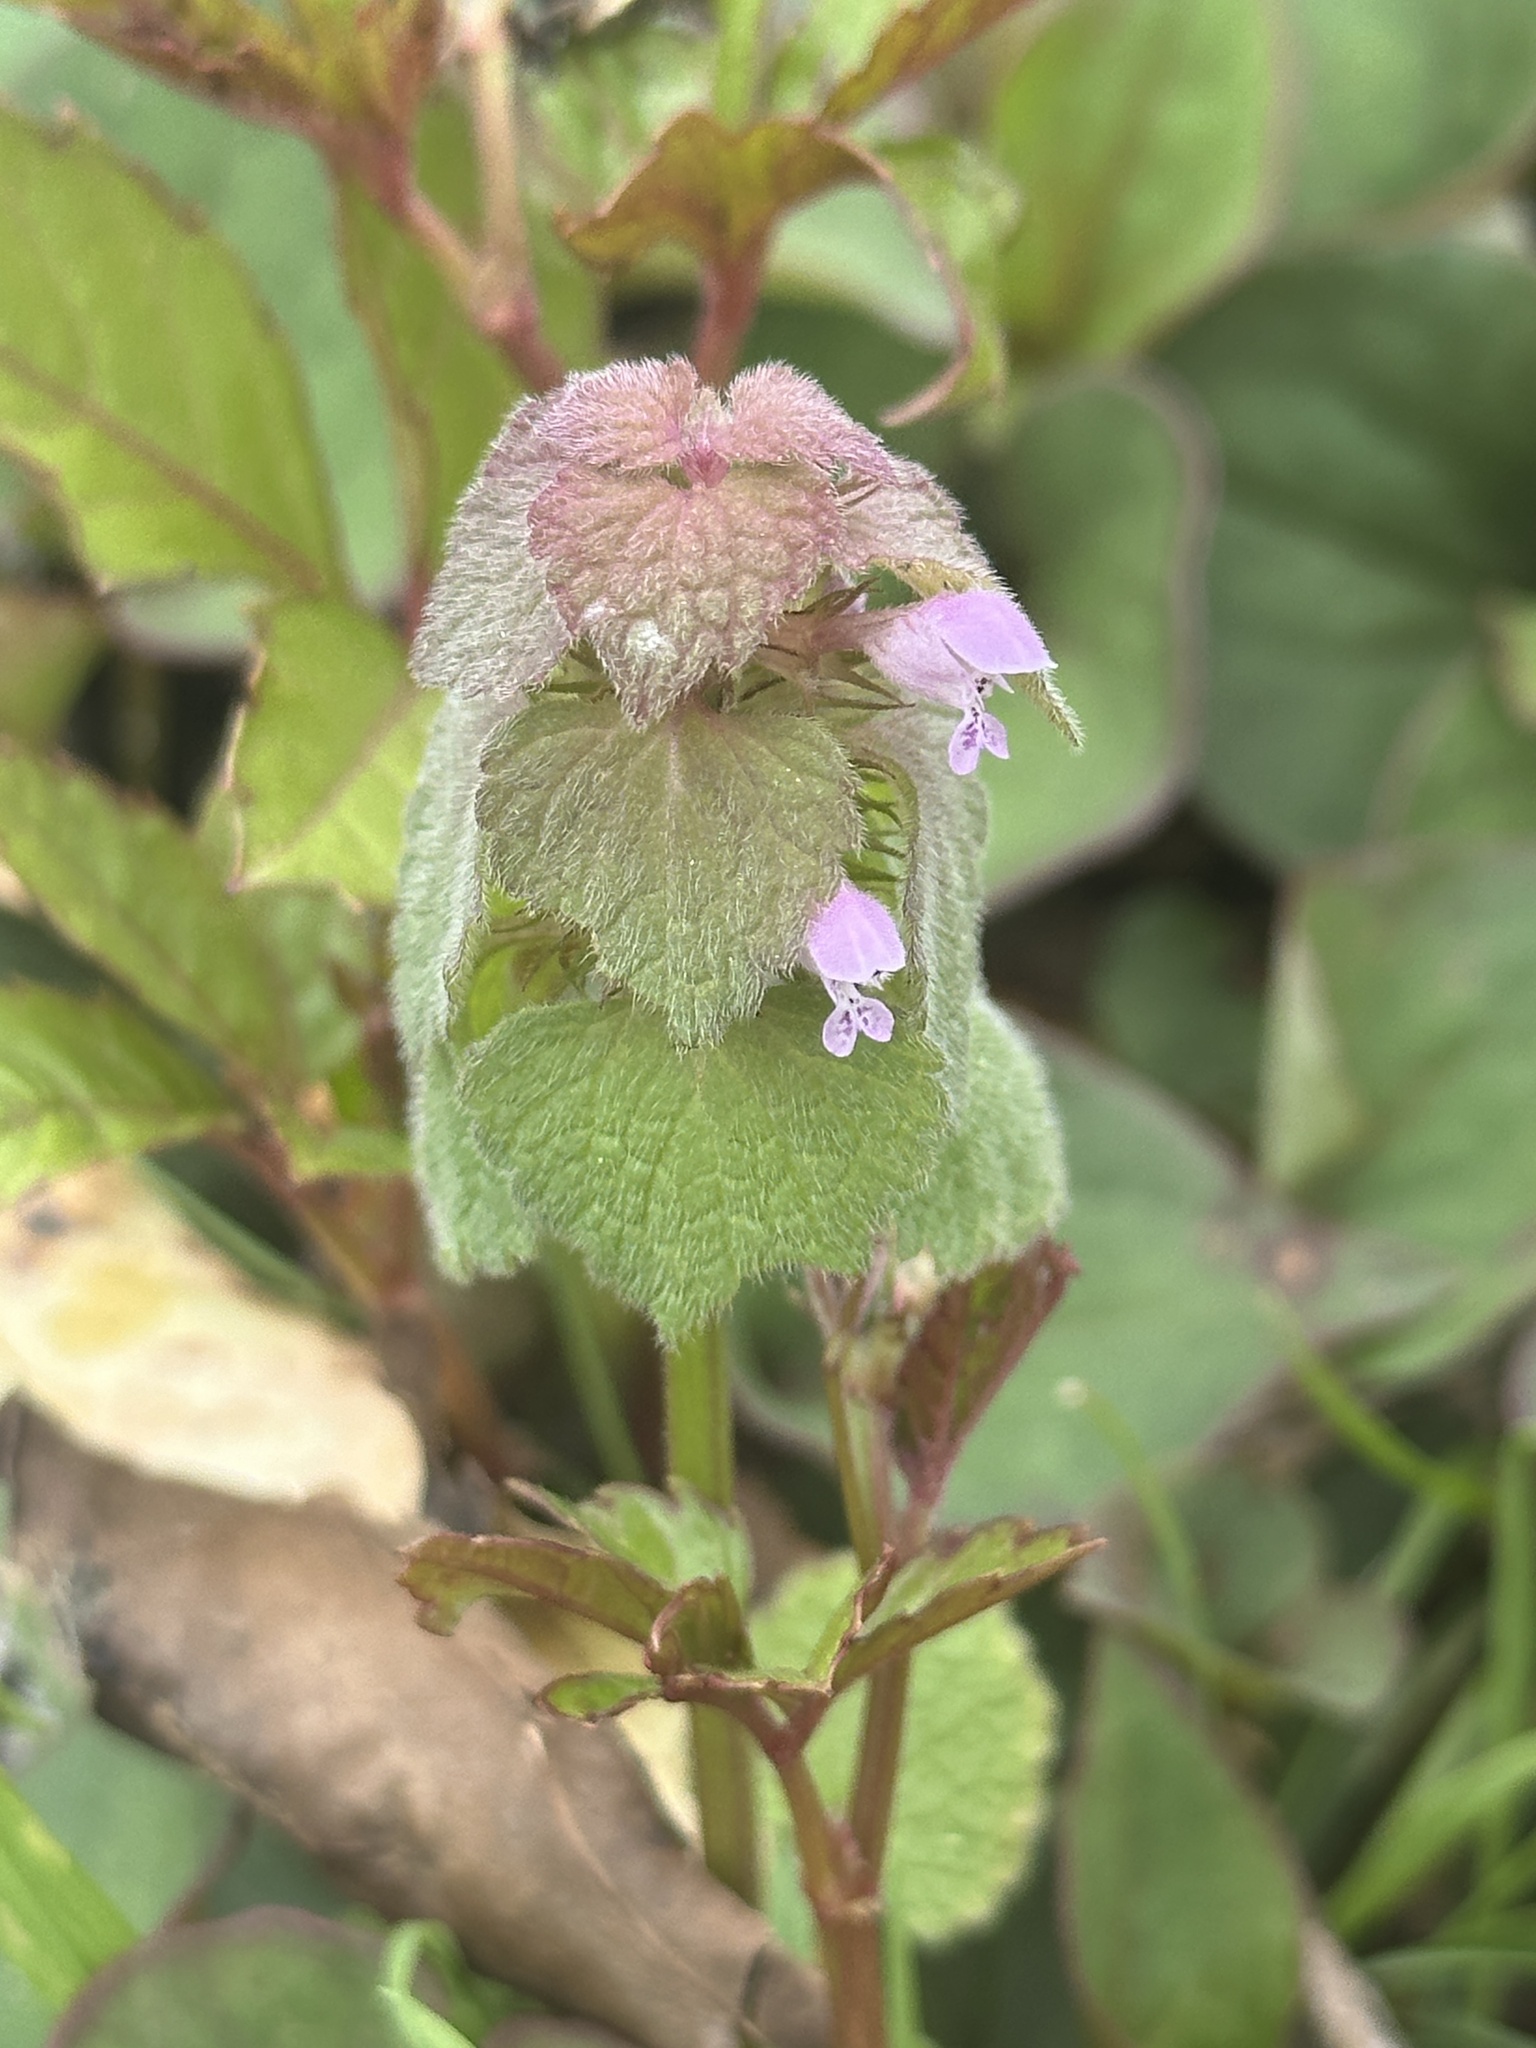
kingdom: Plantae
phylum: Tracheophyta
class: Magnoliopsida
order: Lamiales
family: Lamiaceae
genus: Lamium
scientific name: Lamium purpureum
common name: Red dead-nettle
